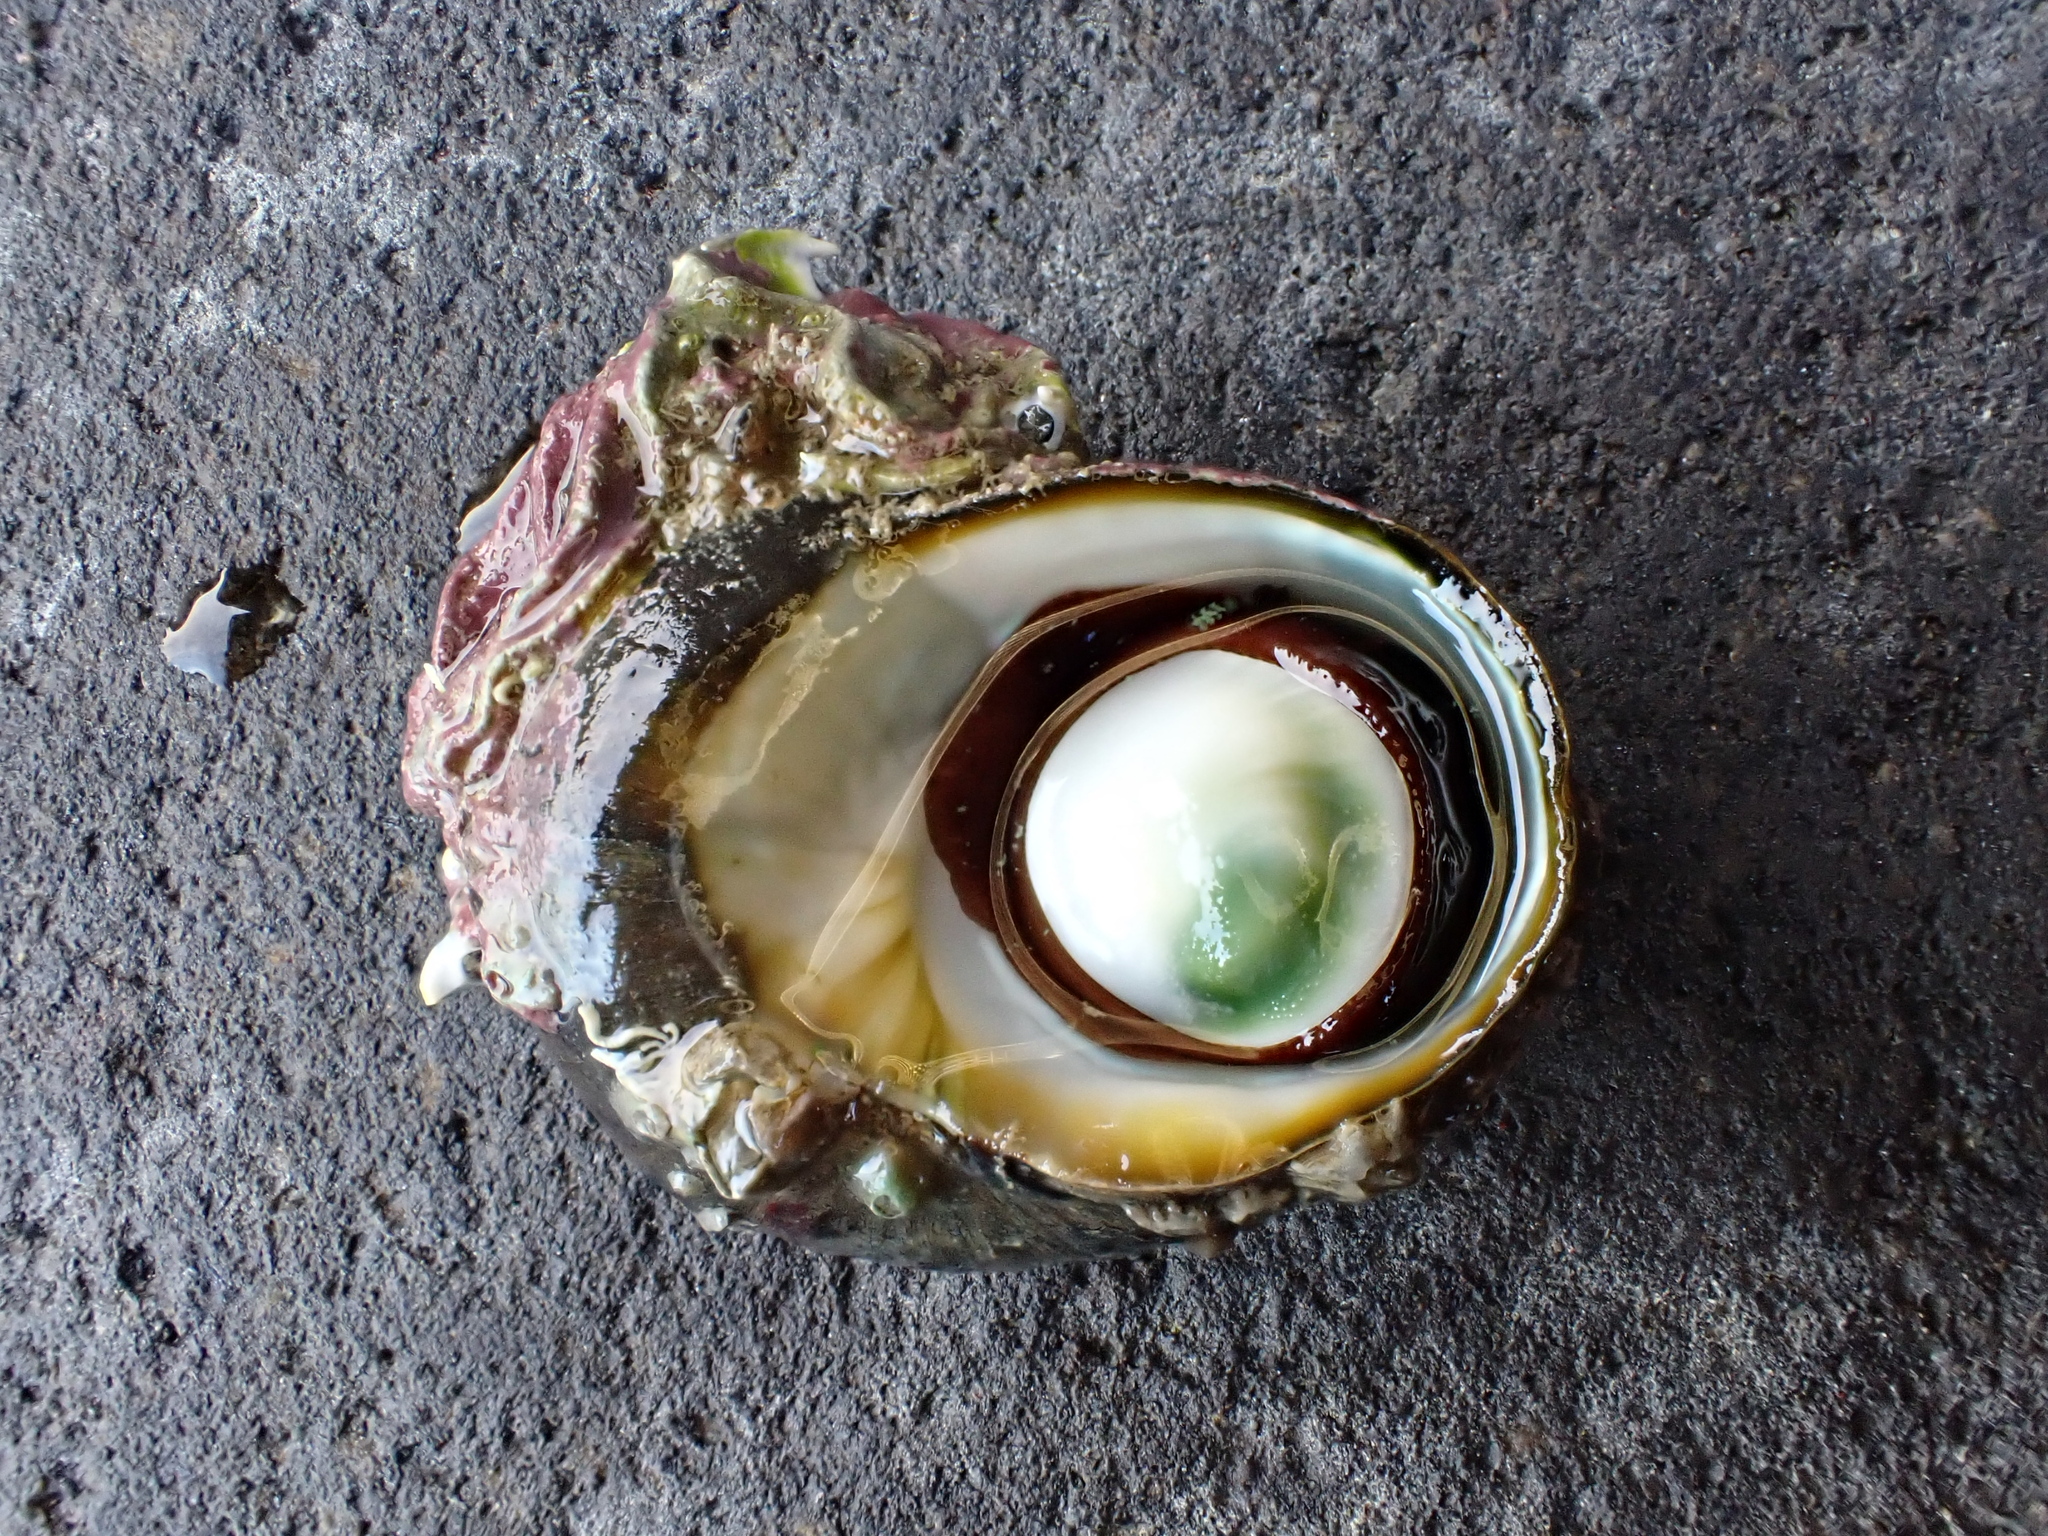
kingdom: Animalia
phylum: Mollusca
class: Gastropoda
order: Trochida
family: Turbinidae
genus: Lunella
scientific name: Lunella smaragda
